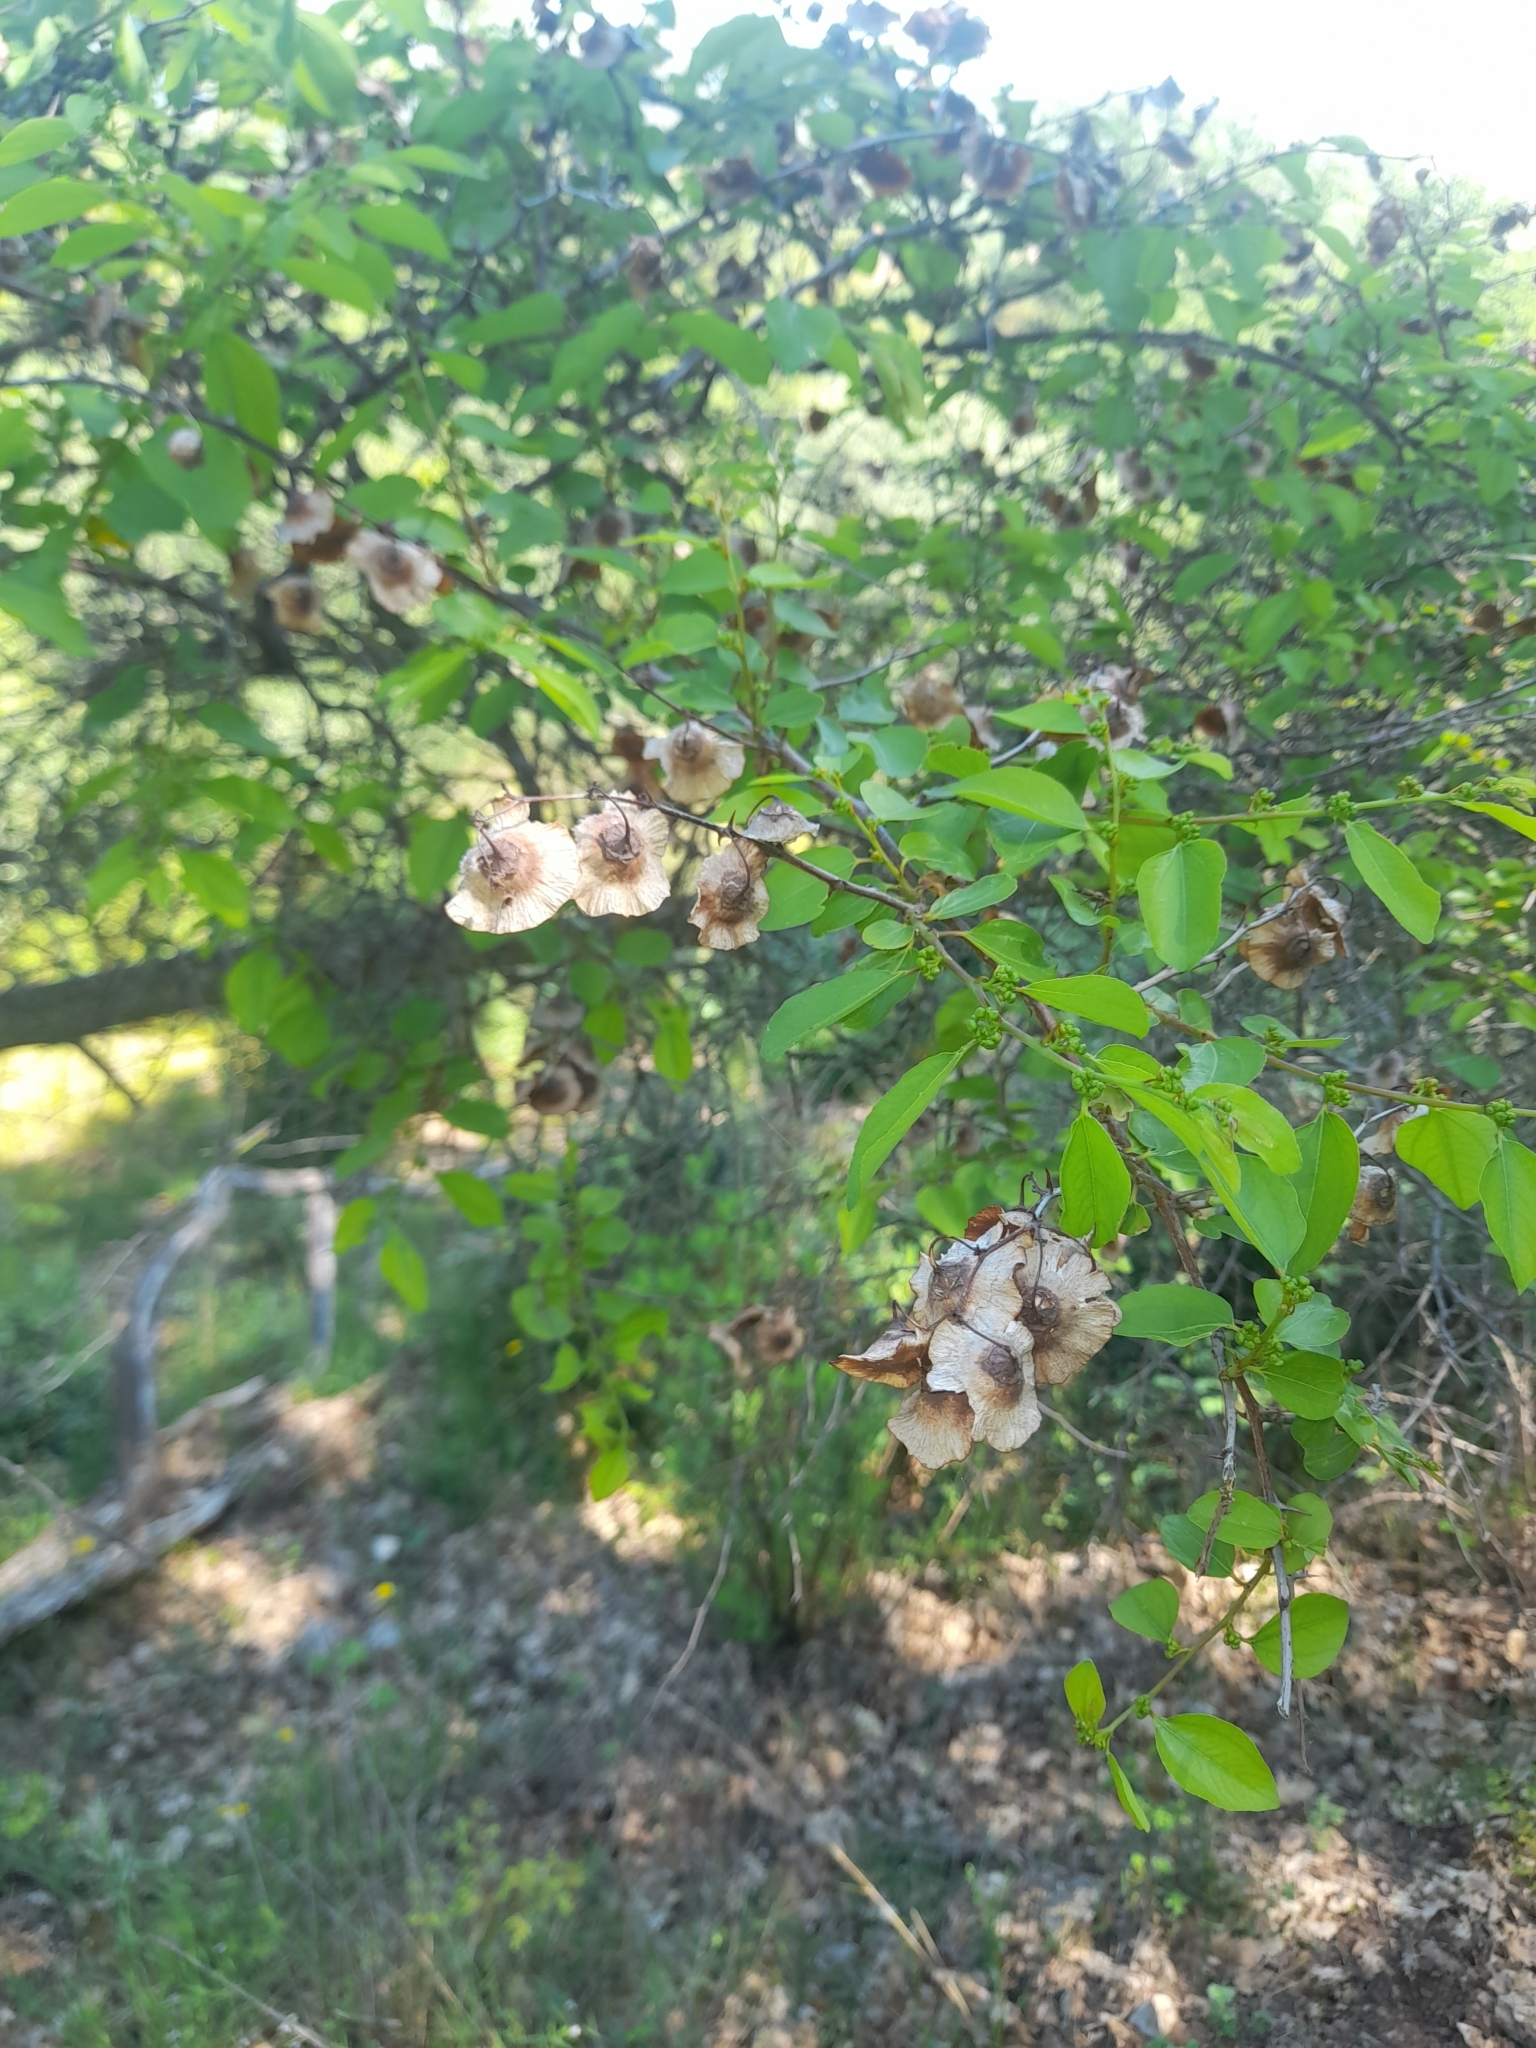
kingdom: Plantae
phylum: Tracheophyta
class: Magnoliopsida
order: Rosales
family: Rhamnaceae
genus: Paliurus
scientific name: Paliurus spina-christi
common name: Jeruselem thorn
